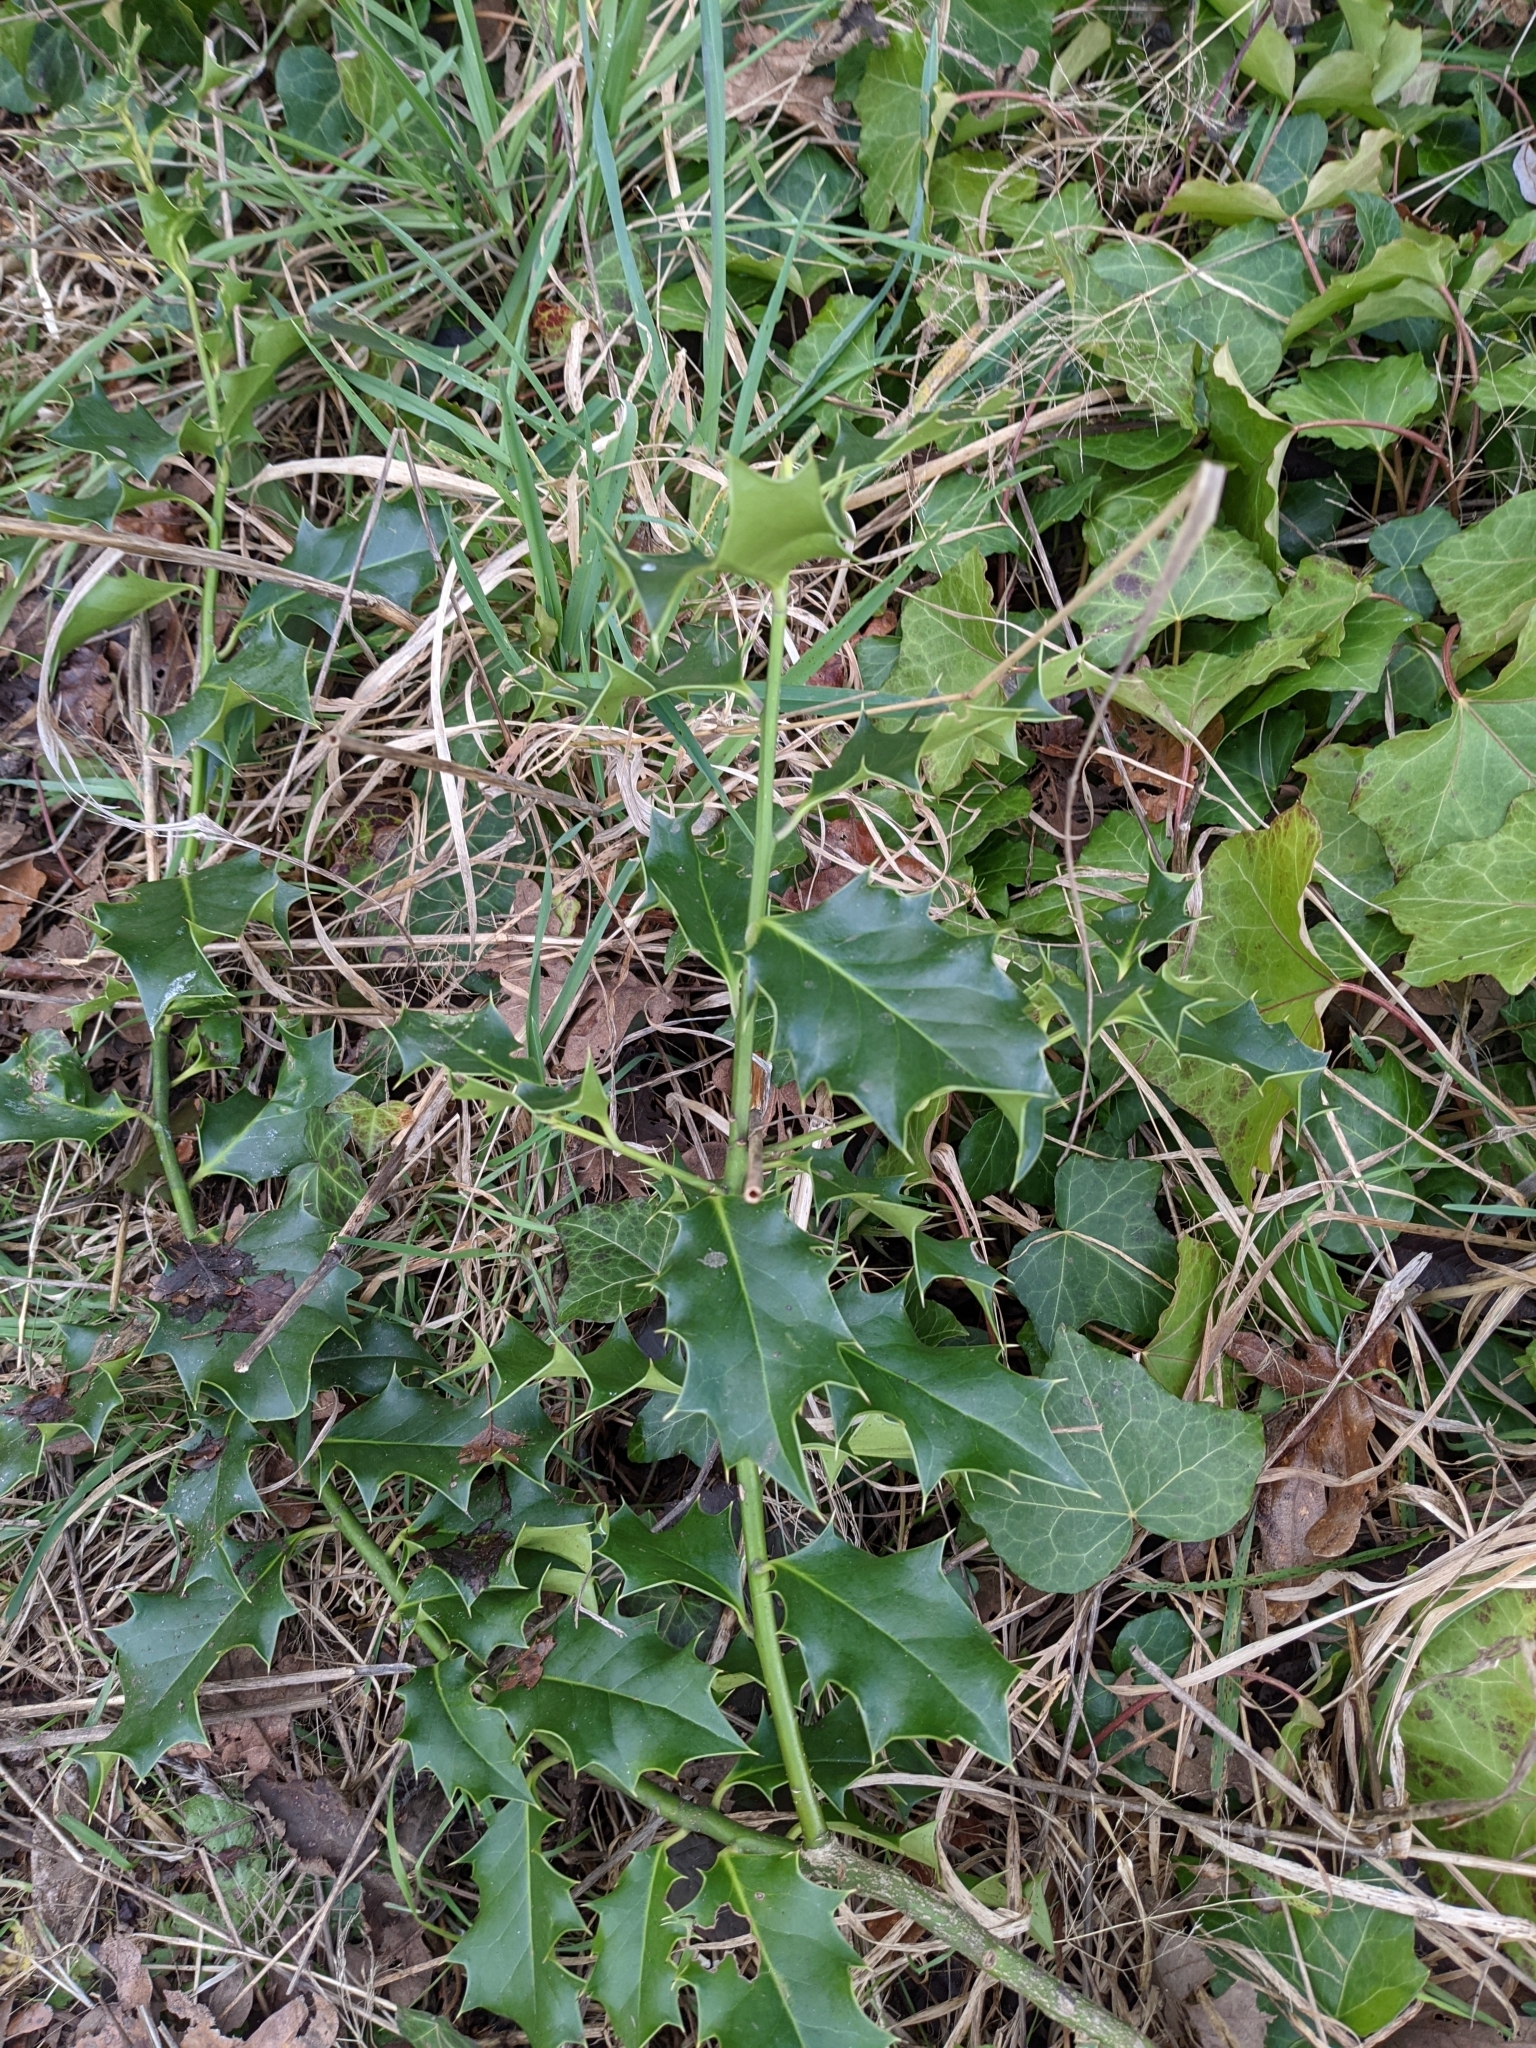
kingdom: Plantae
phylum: Tracheophyta
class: Magnoliopsida
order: Aquifoliales
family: Aquifoliaceae
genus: Ilex
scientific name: Ilex aquifolium
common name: English holly
